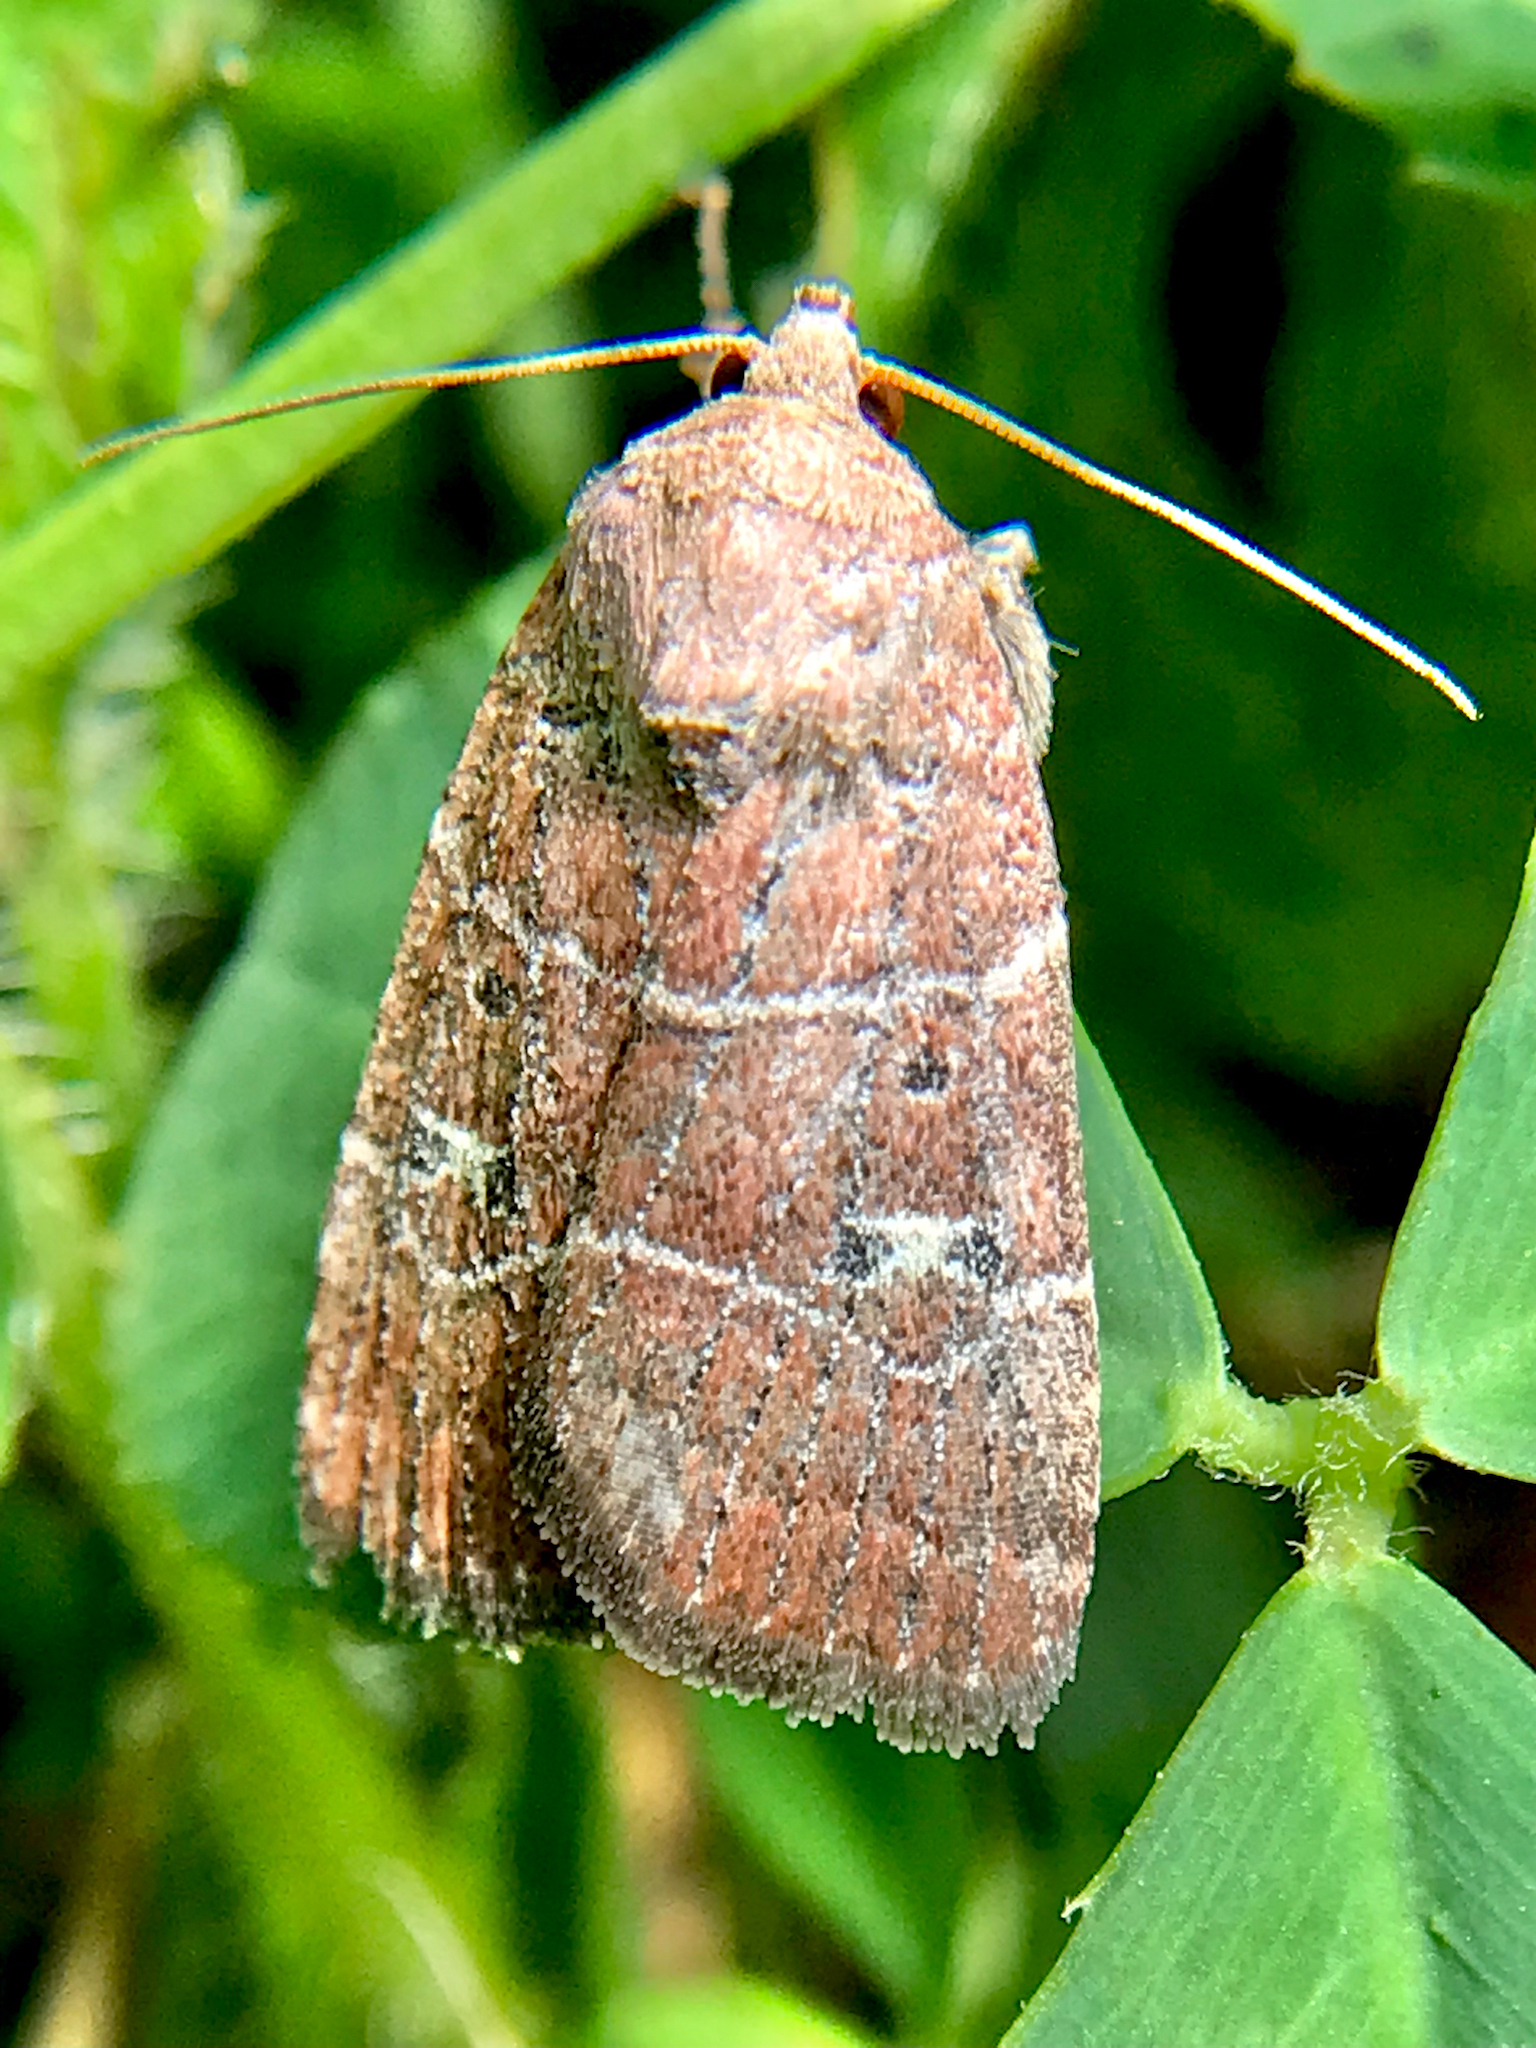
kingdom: Animalia
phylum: Arthropoda
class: Insecta
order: Lepidoptera
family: Noctuidae
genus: Elaphria
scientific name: Elaphria grata
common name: Grateful midget moth
